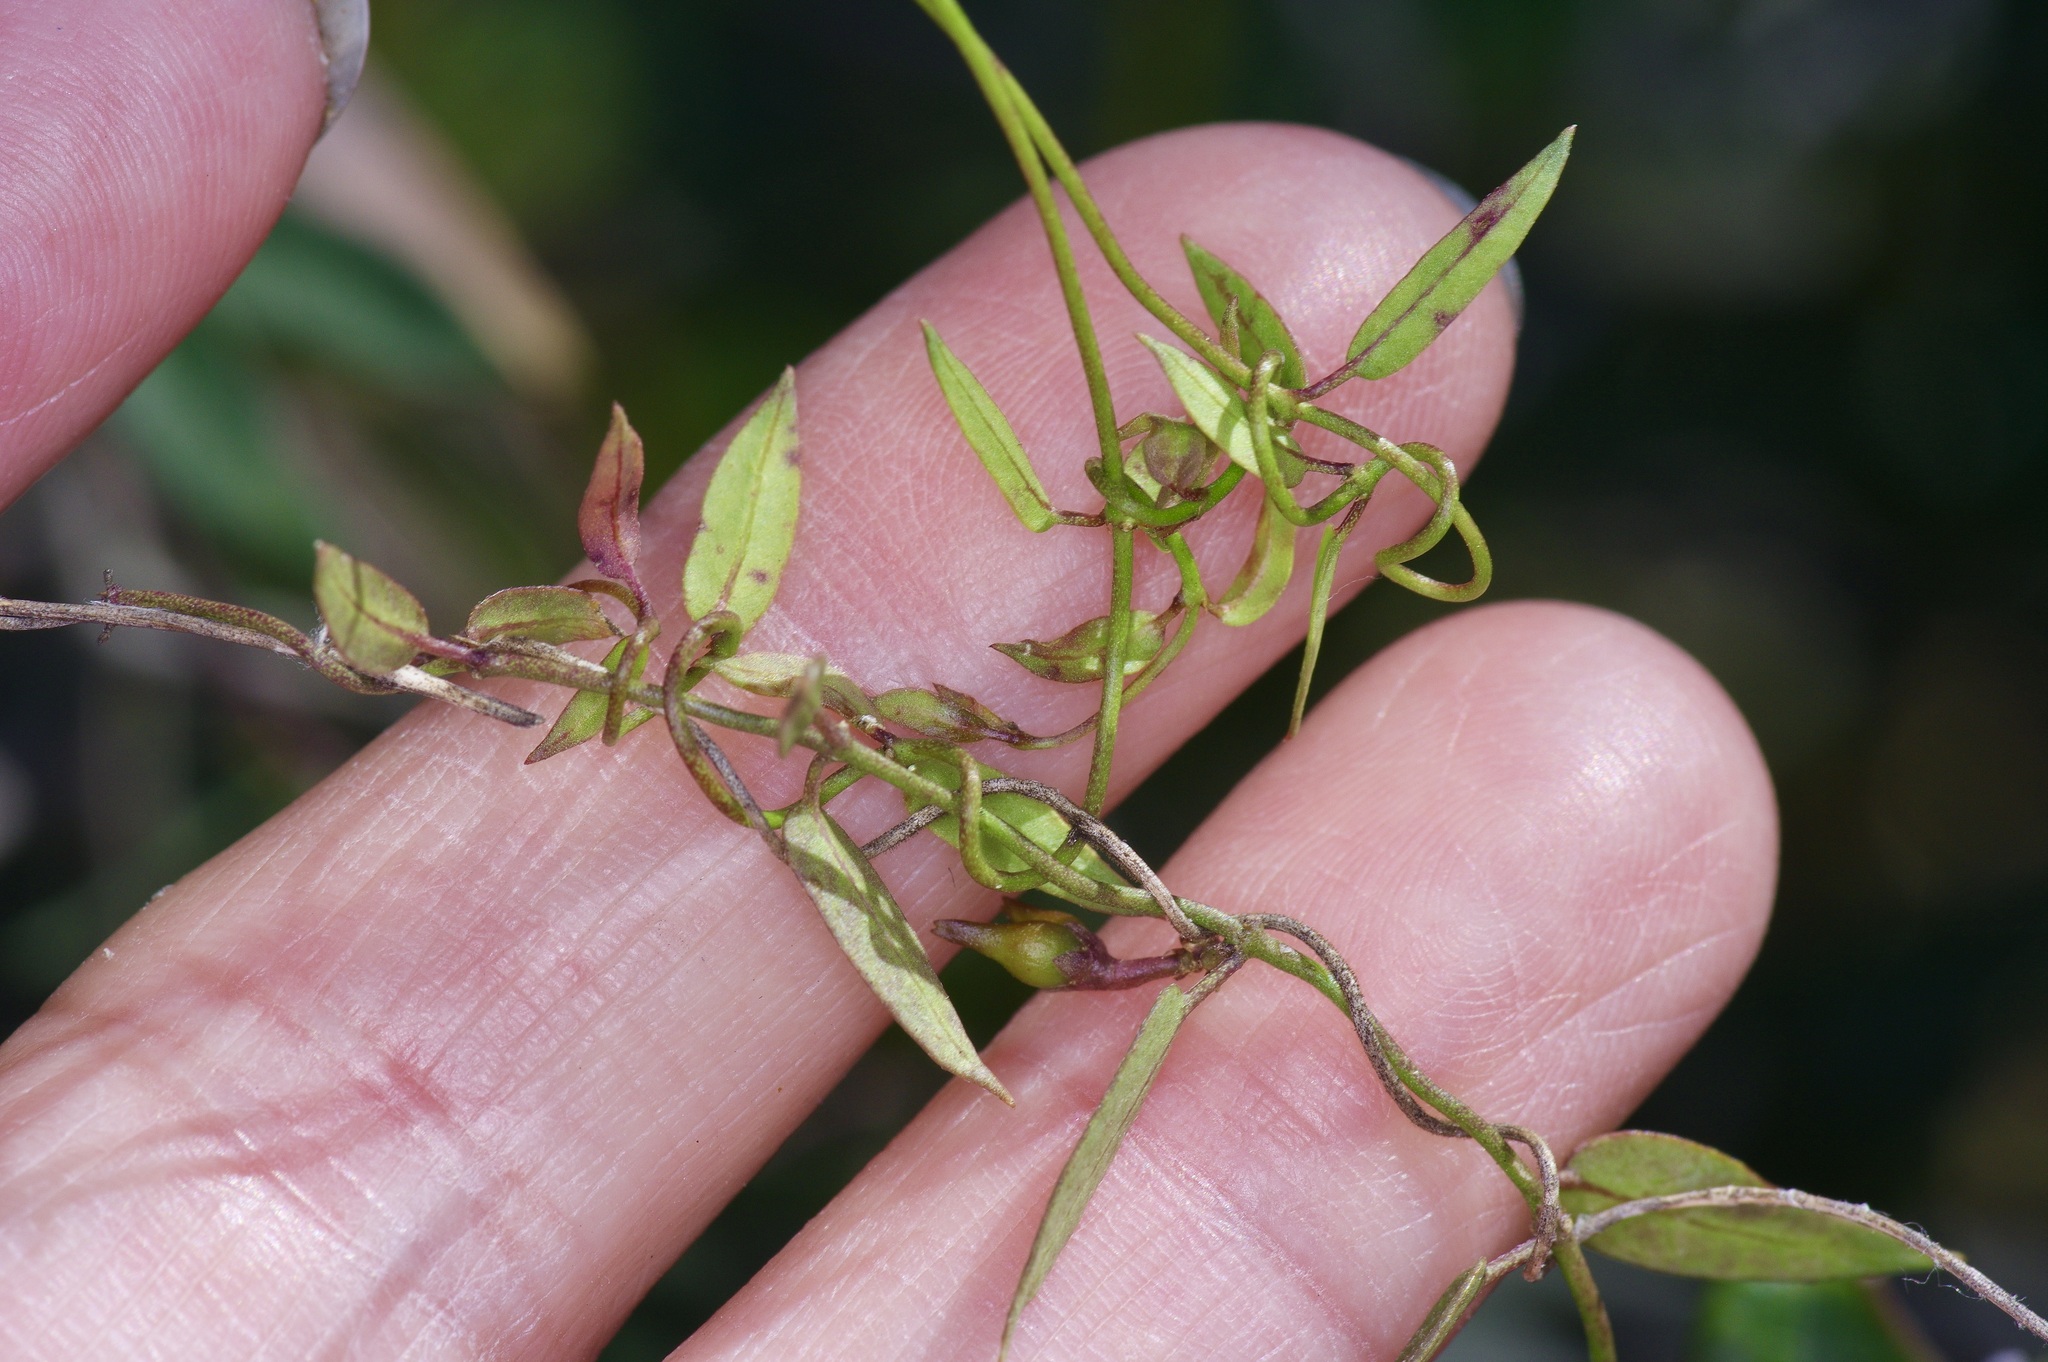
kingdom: Plantae
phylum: Tracheophyta
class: Magnoliopsida
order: Gentianales
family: Apocynaceae
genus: Metastelma
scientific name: Metastelma palmeri
